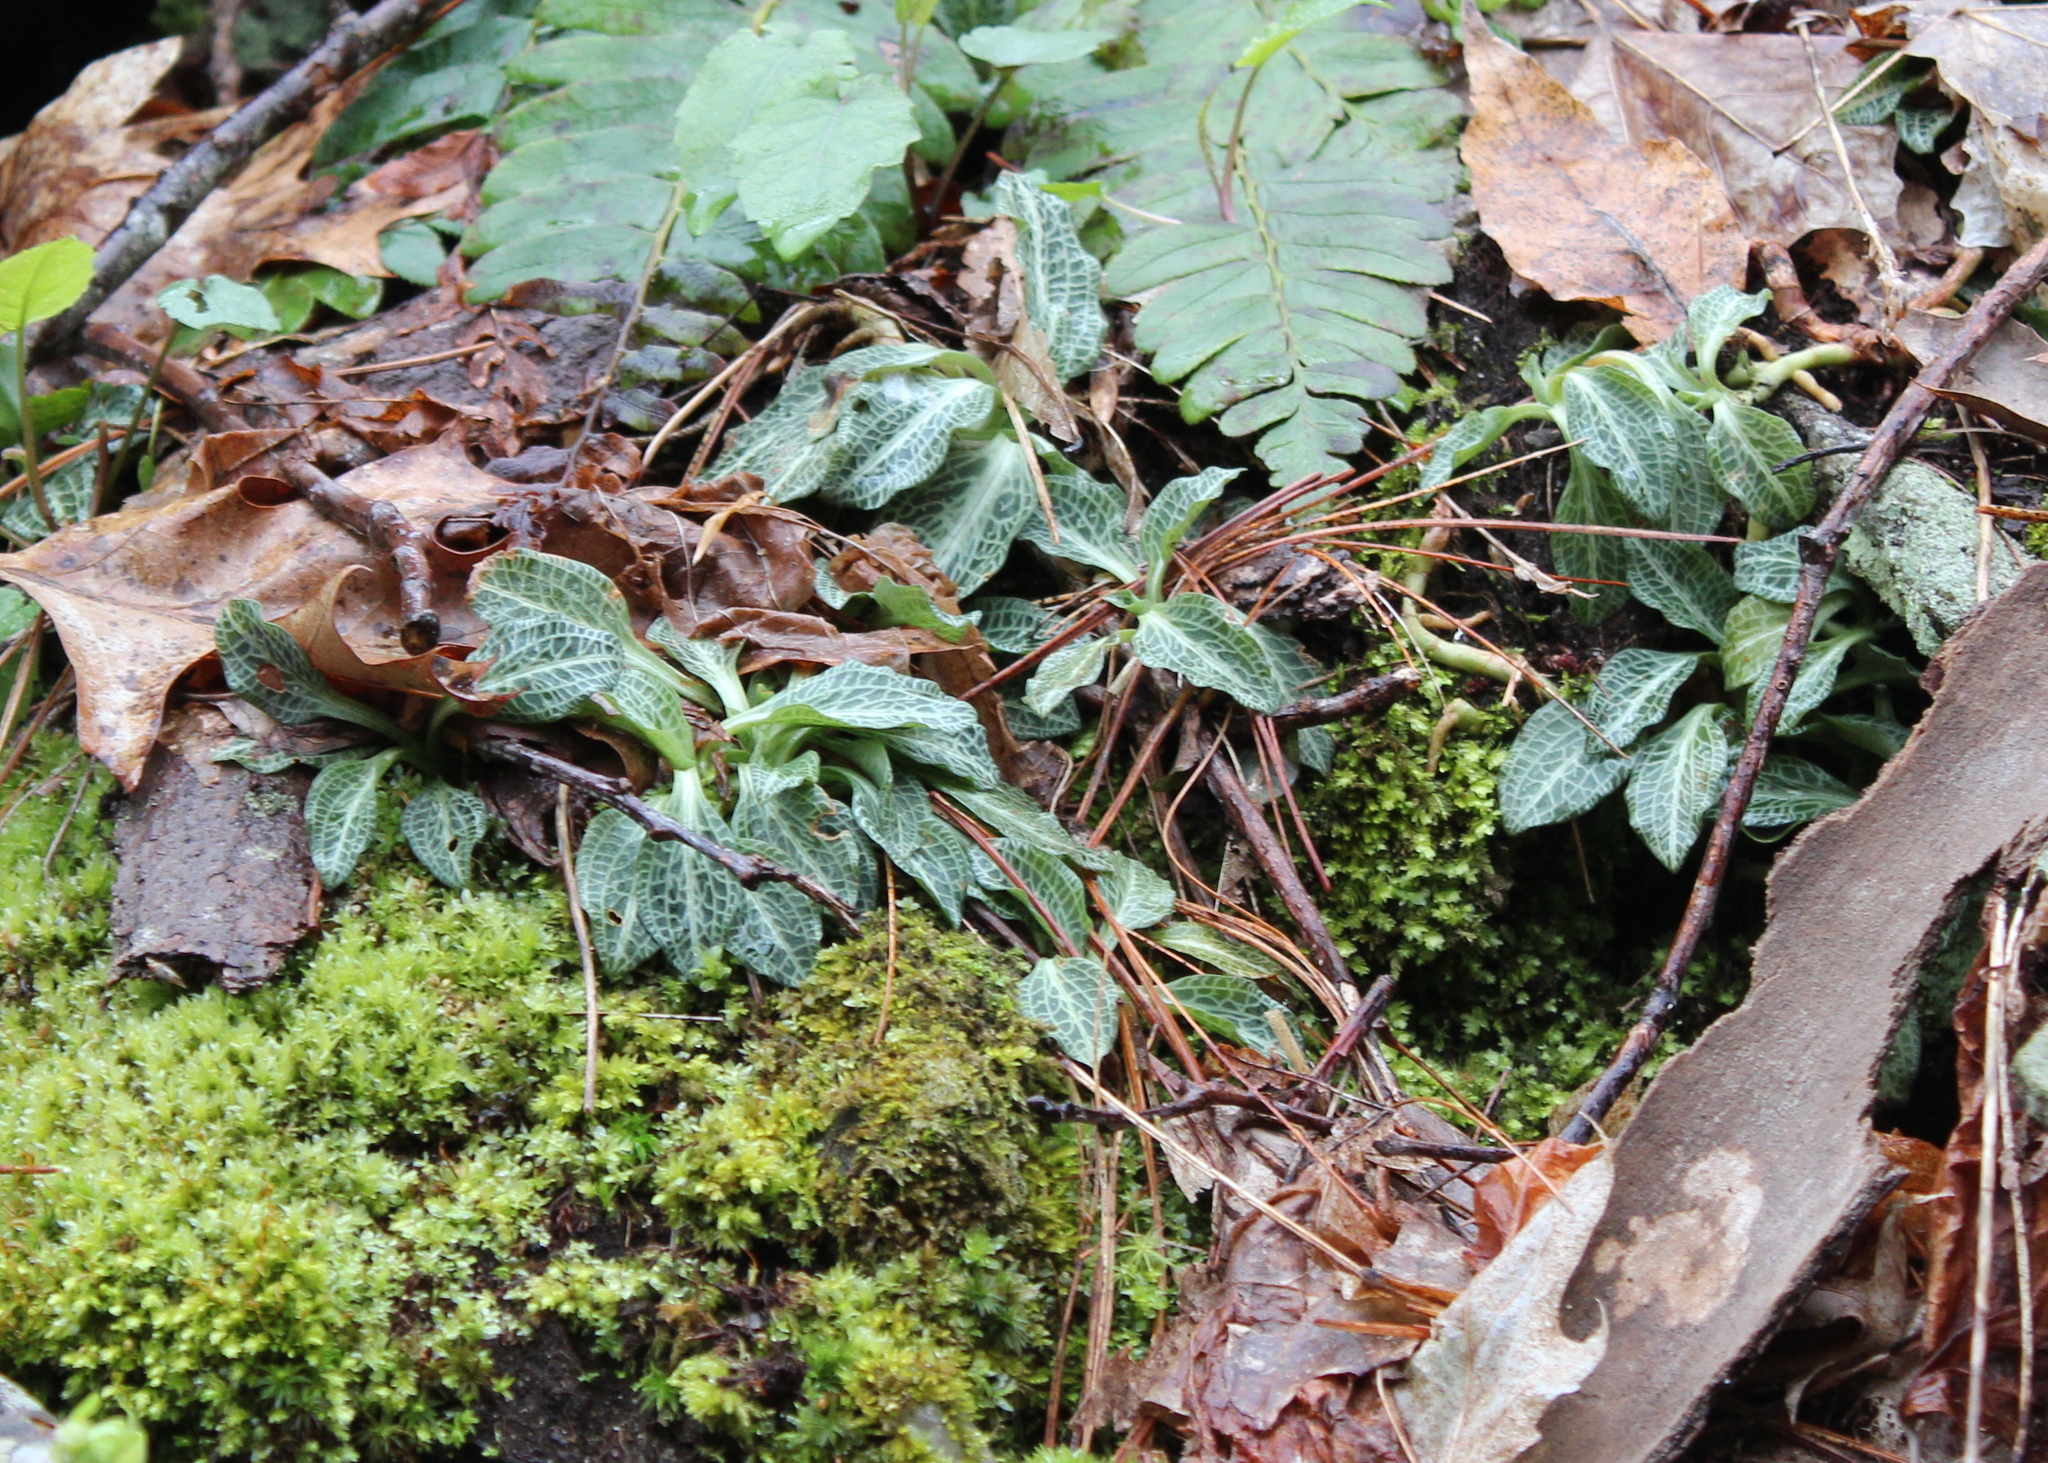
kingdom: Plantae
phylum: Tracheophyta
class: Liliopsida
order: Asparagales
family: Orchidaceae
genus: Goodyera
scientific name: Goodyera pubescens
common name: Downy rattlesnake-plantain
